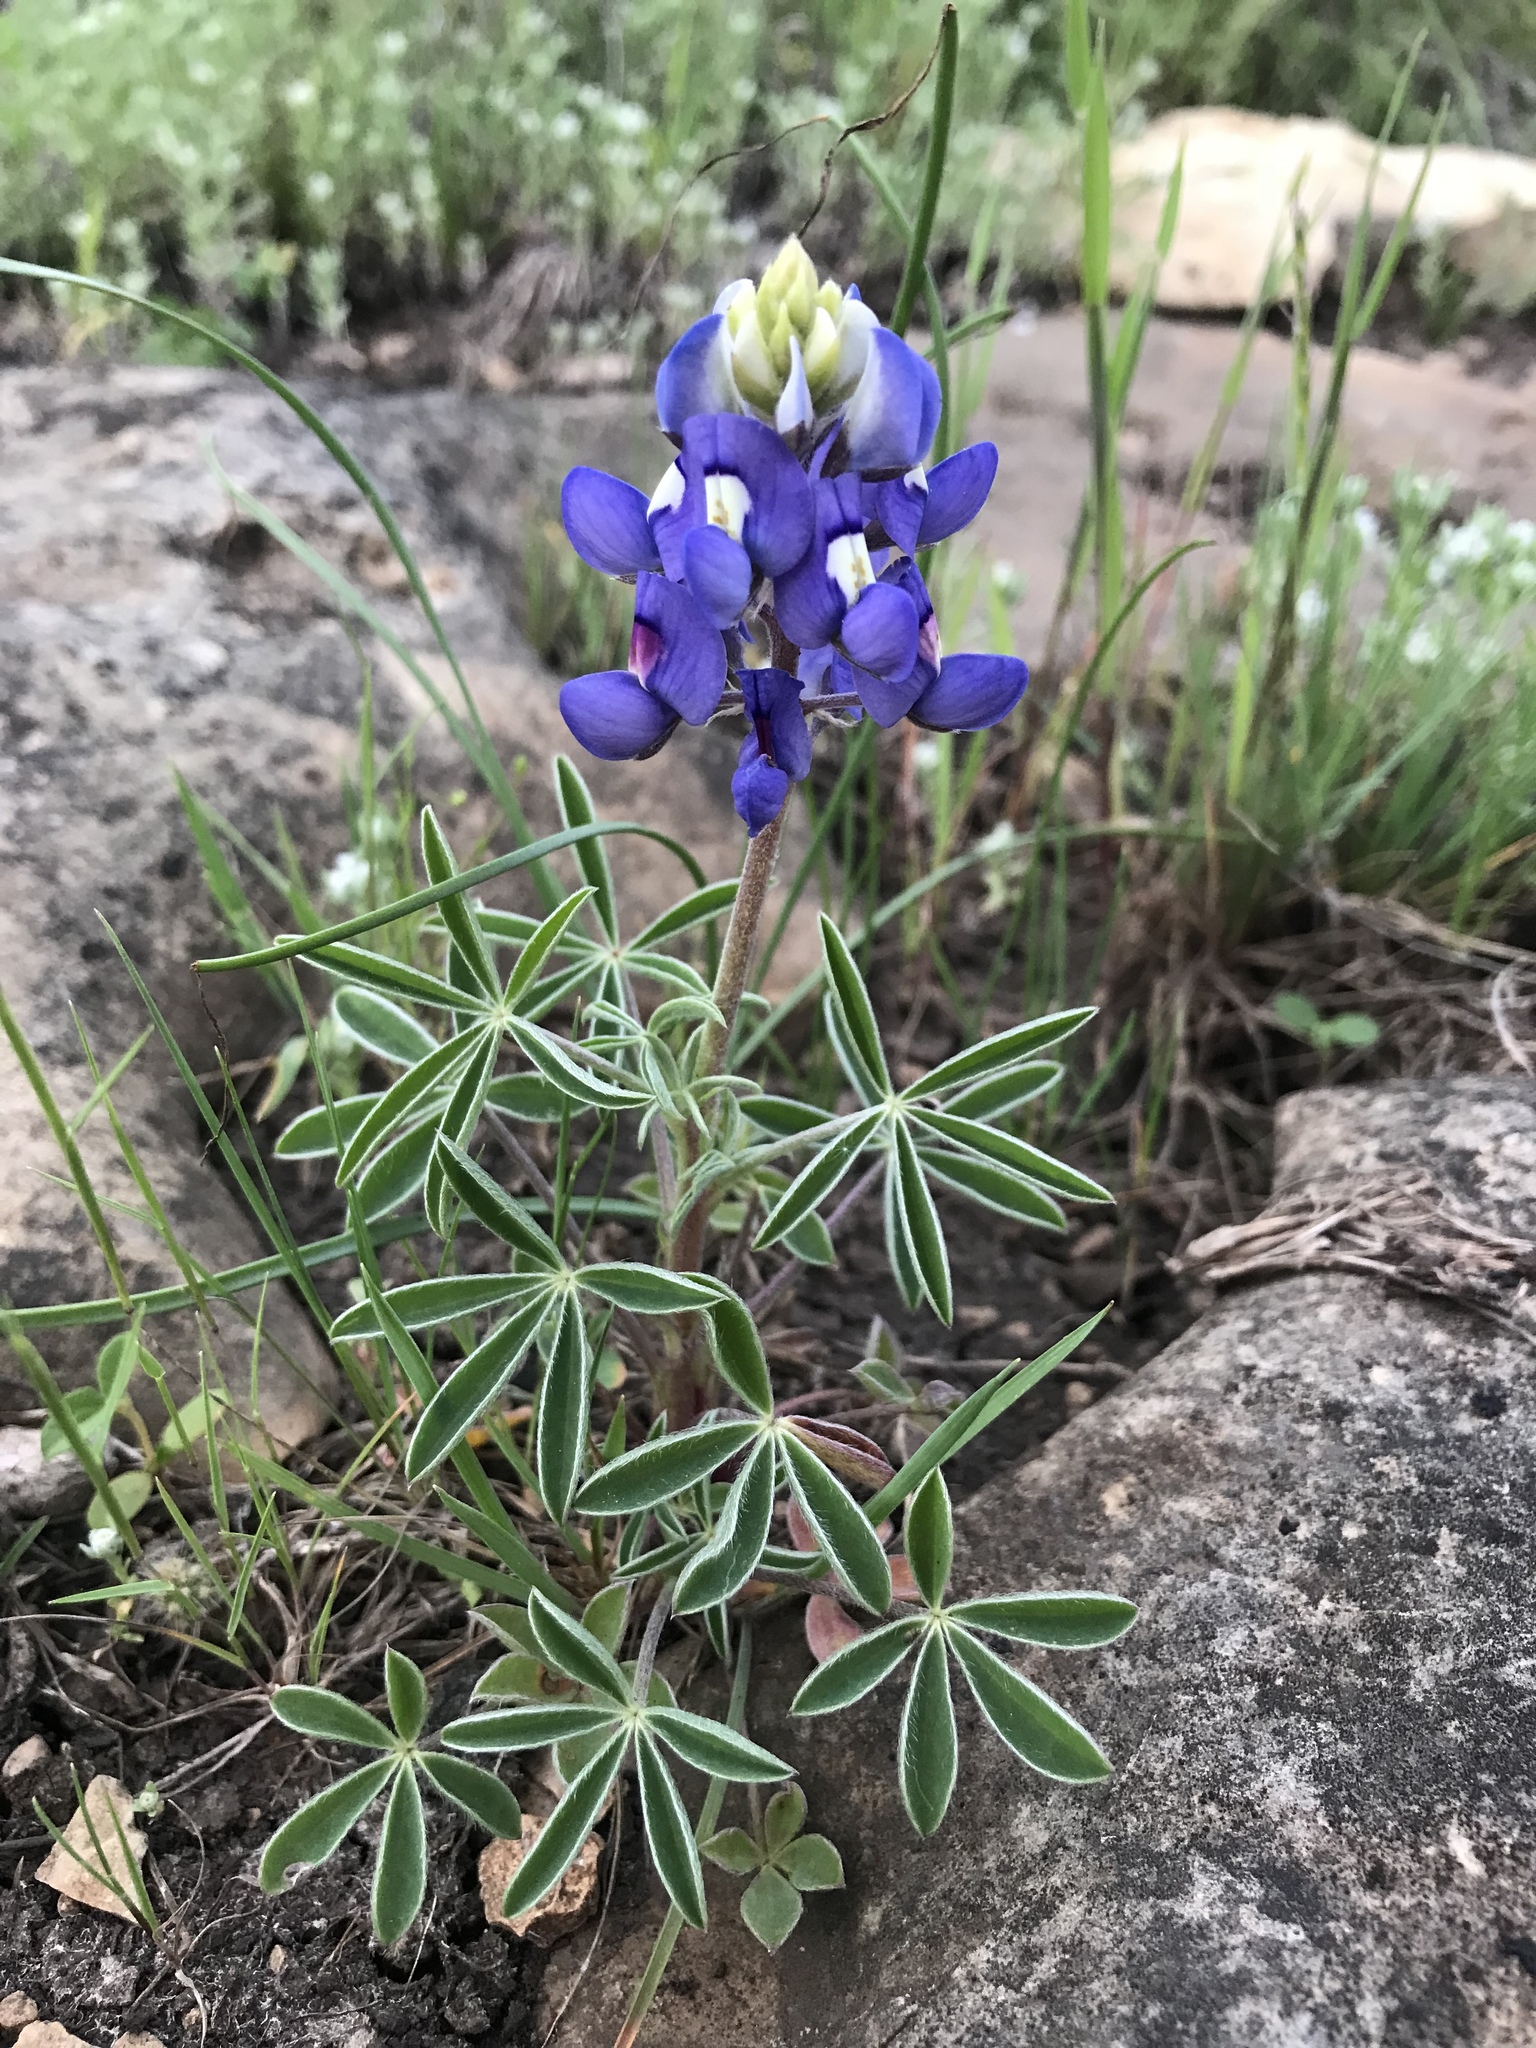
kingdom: Plantae
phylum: Tracheophyta
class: Magnoliopsida
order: Fabales
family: Fabaceae
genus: Lupinus
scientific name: Lupinus texensis
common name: Texas bluebonnet
